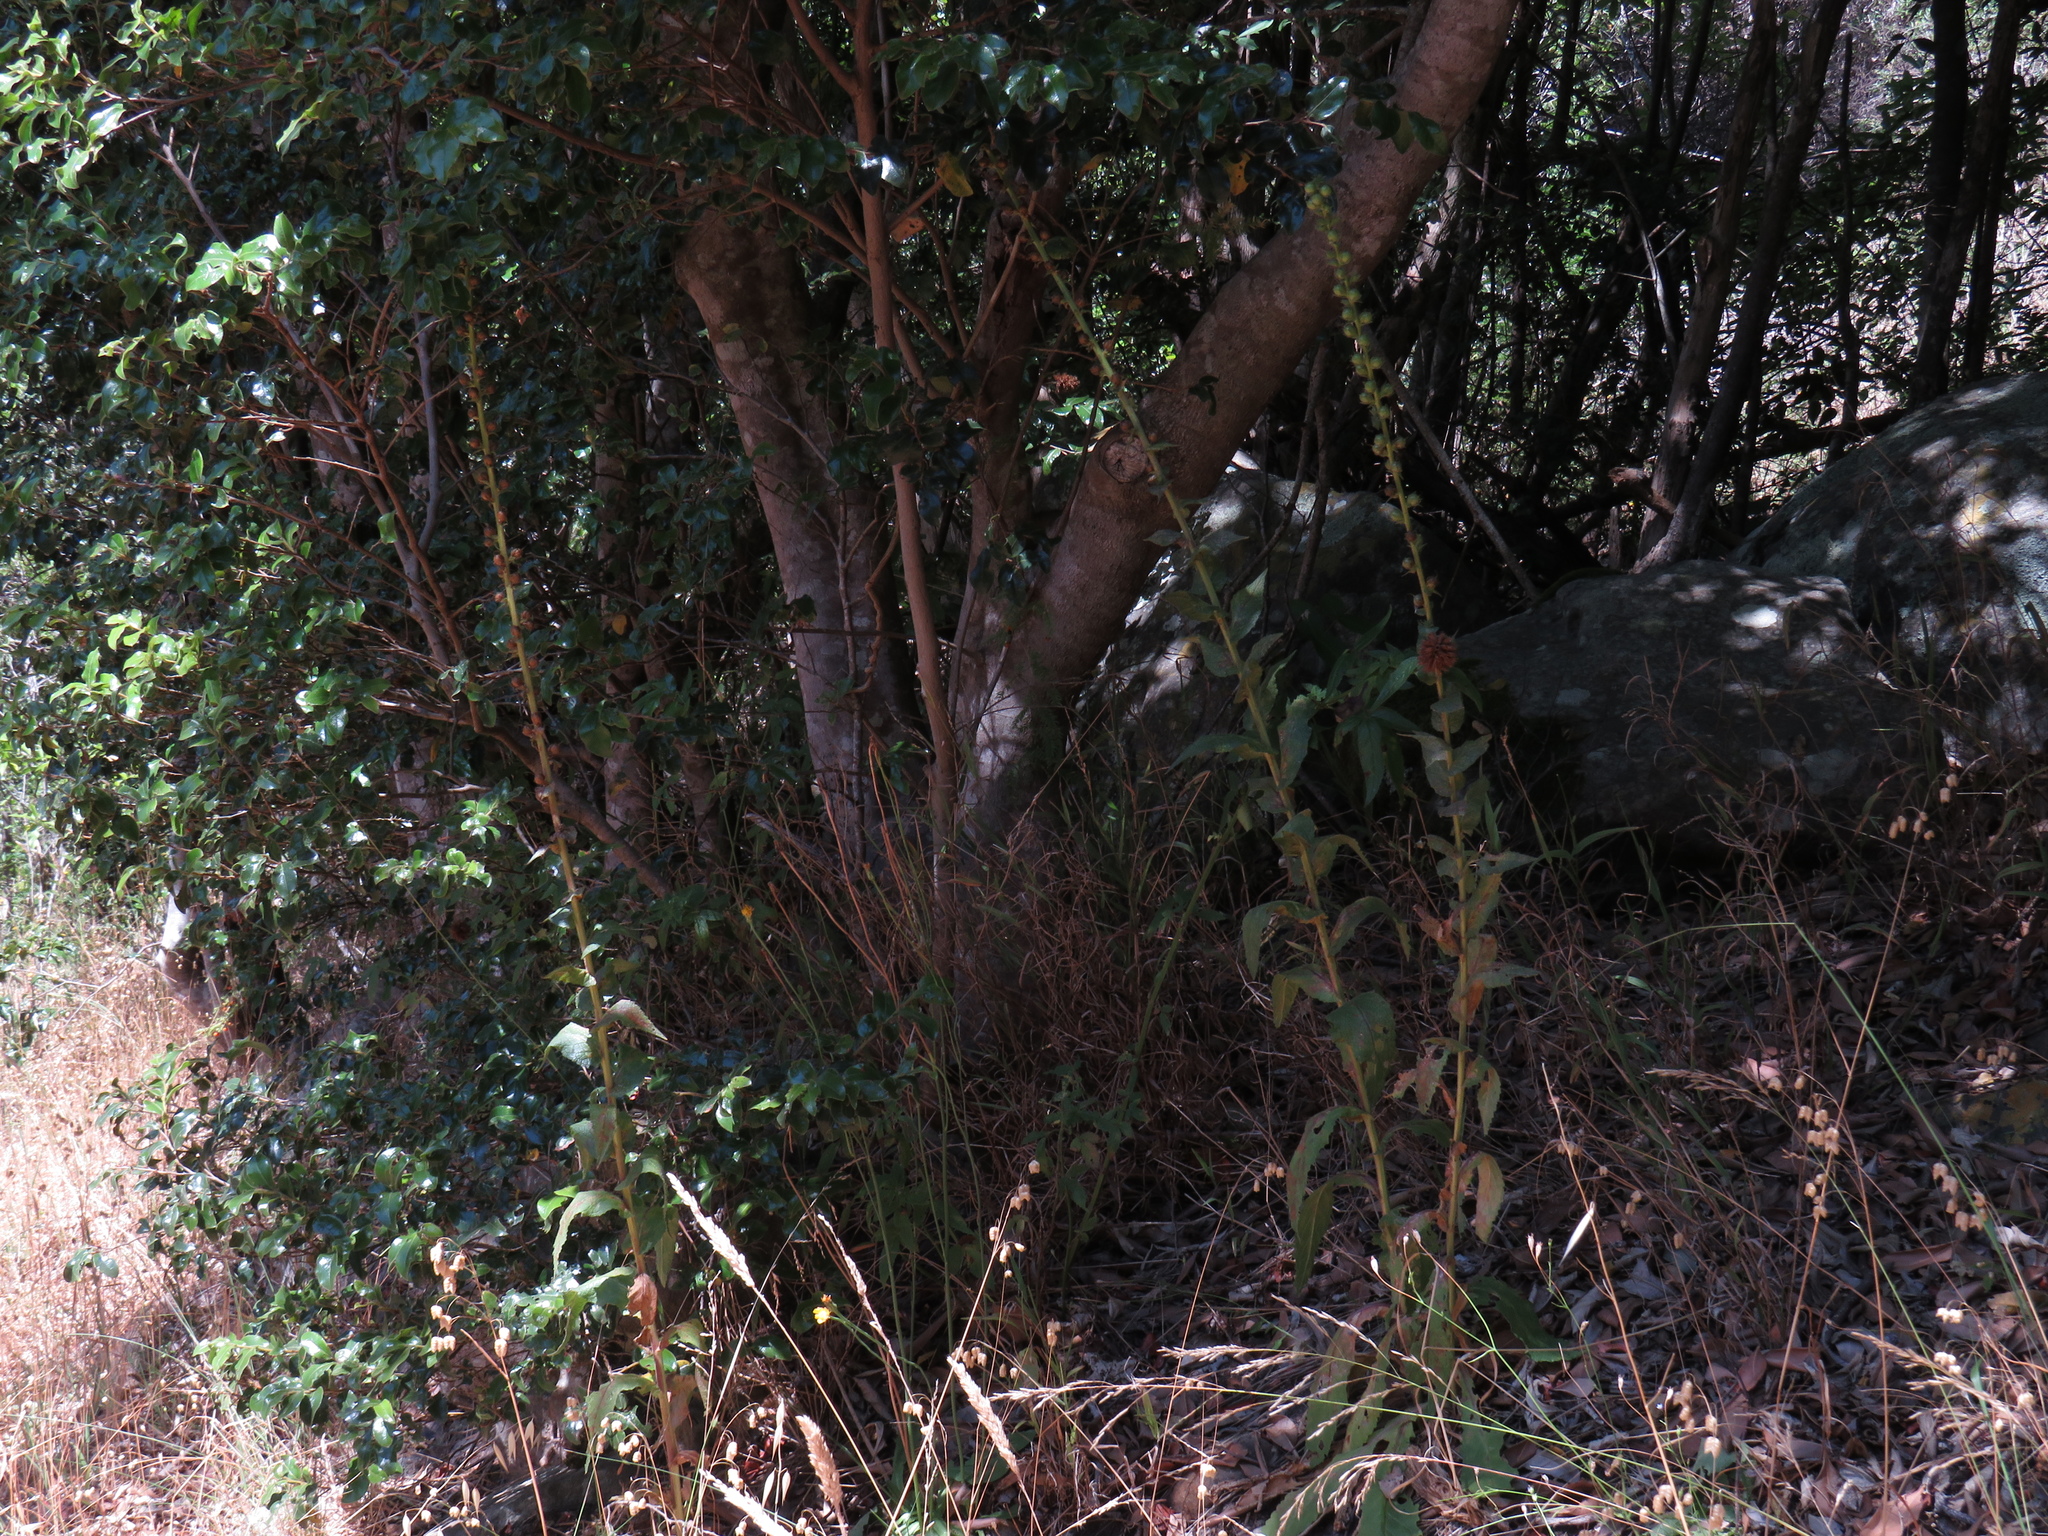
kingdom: Plantae
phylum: Tracheophyta
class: Magnoliopsida
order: Lamiales
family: Scrophulariaceae
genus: Verbascum
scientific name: Verbascum virgatum
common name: Twiggy mullein
